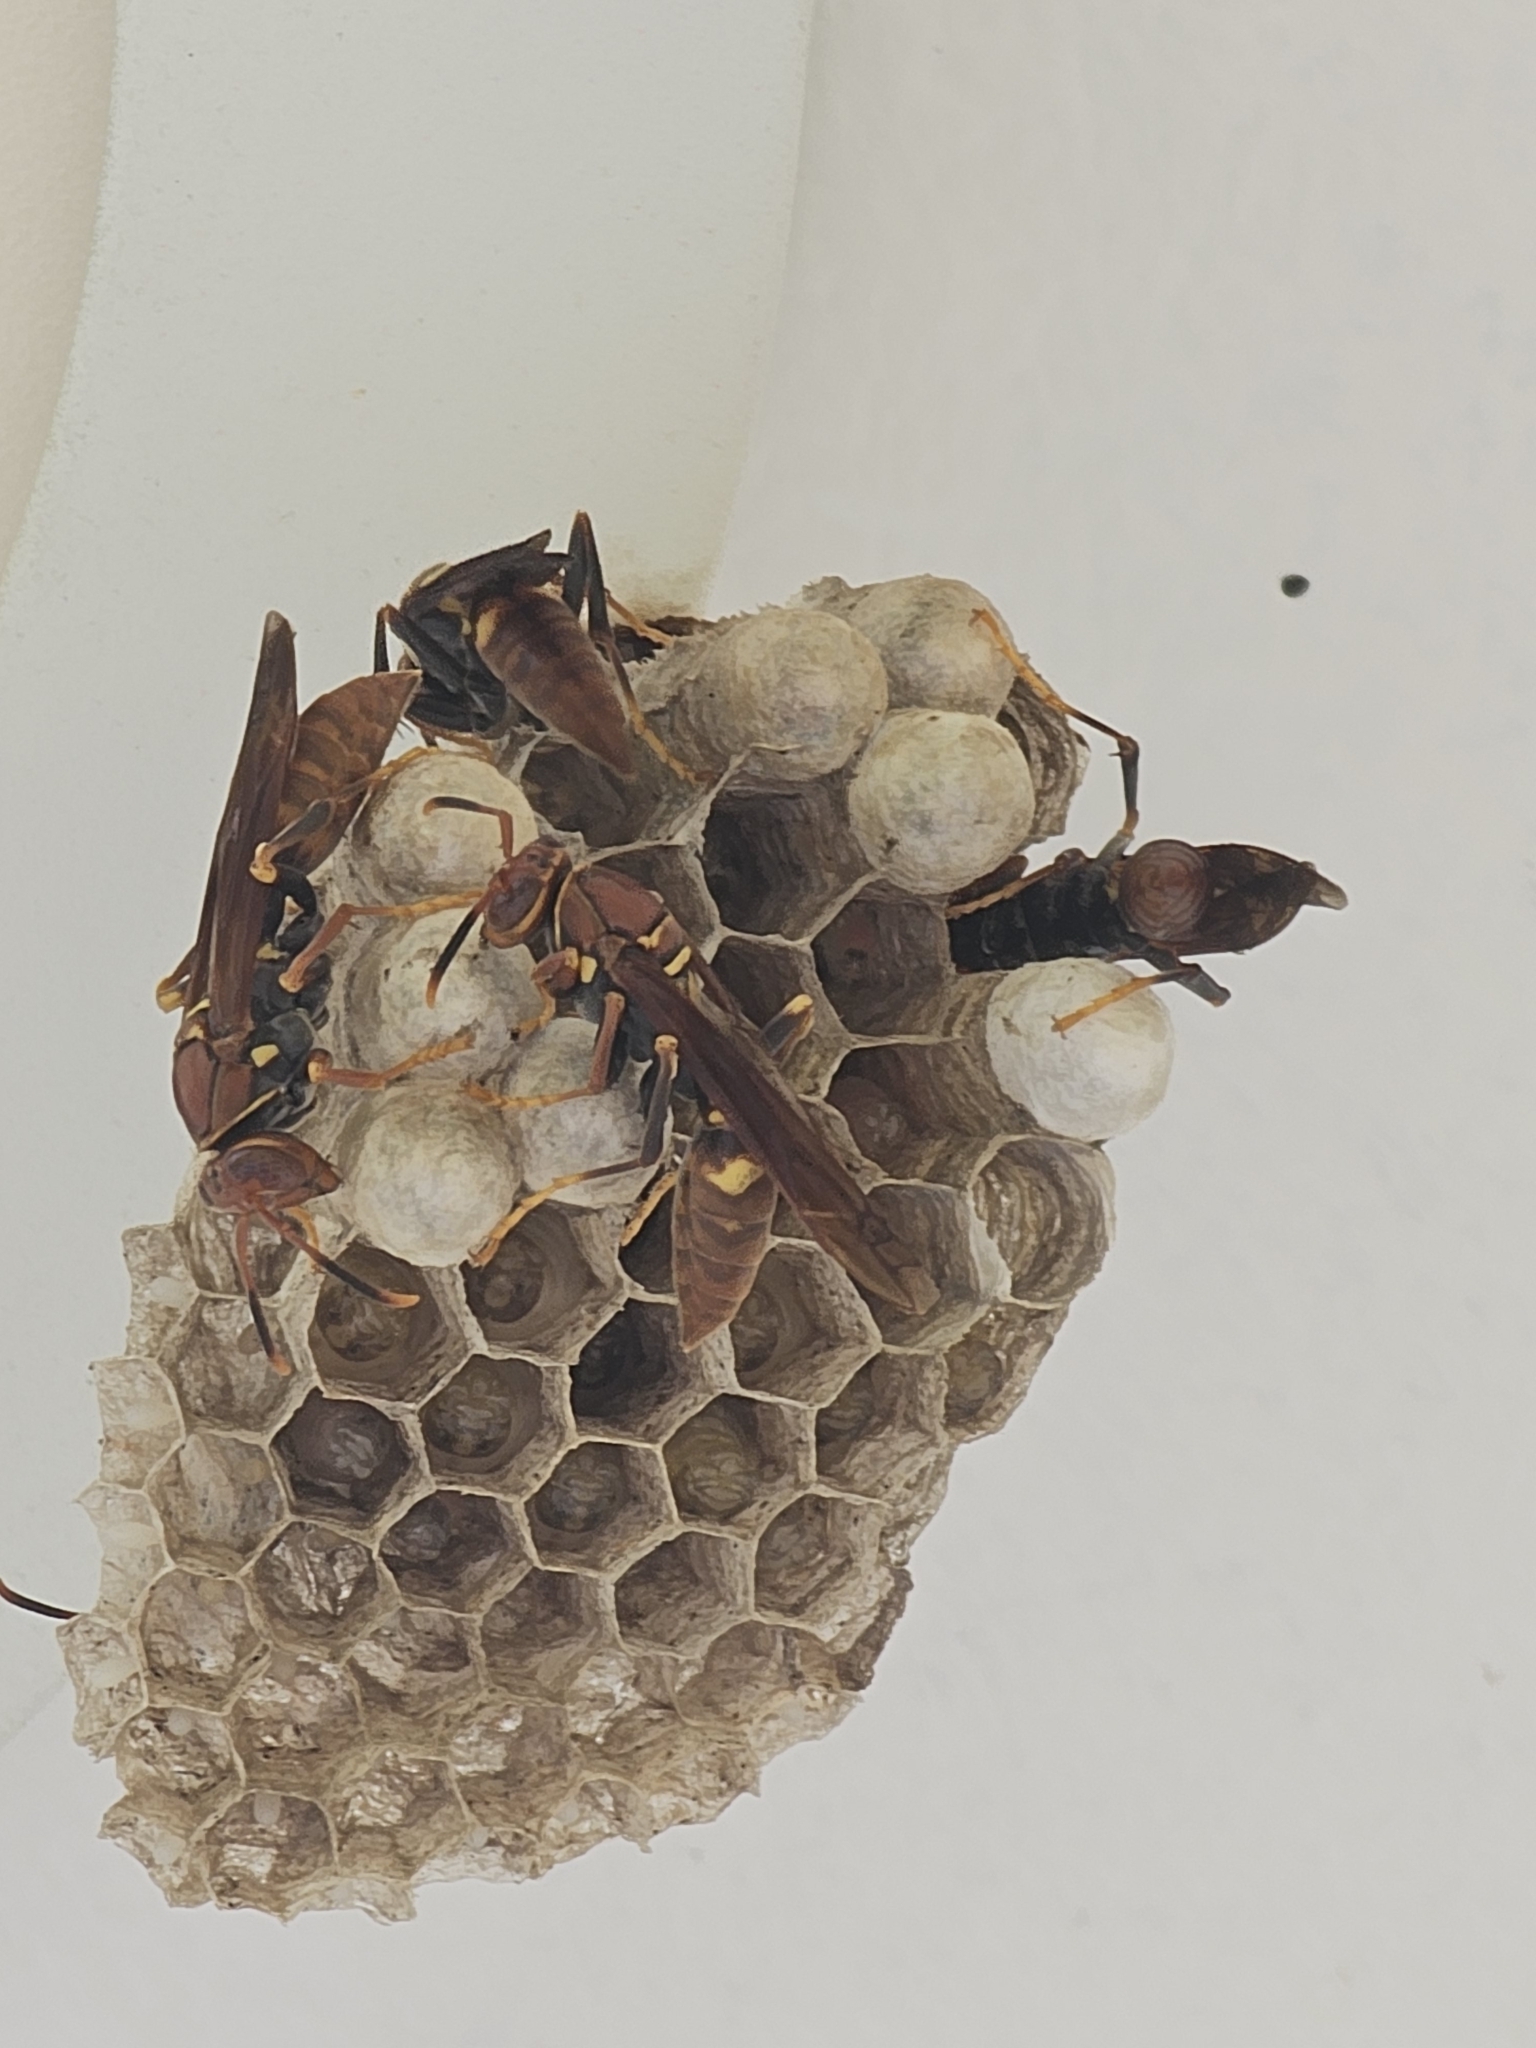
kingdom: Animalia
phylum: Arthropoda
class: Insecta
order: Hymenoptera
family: Eumenidae
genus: Polistes
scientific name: Polistes simillimus
